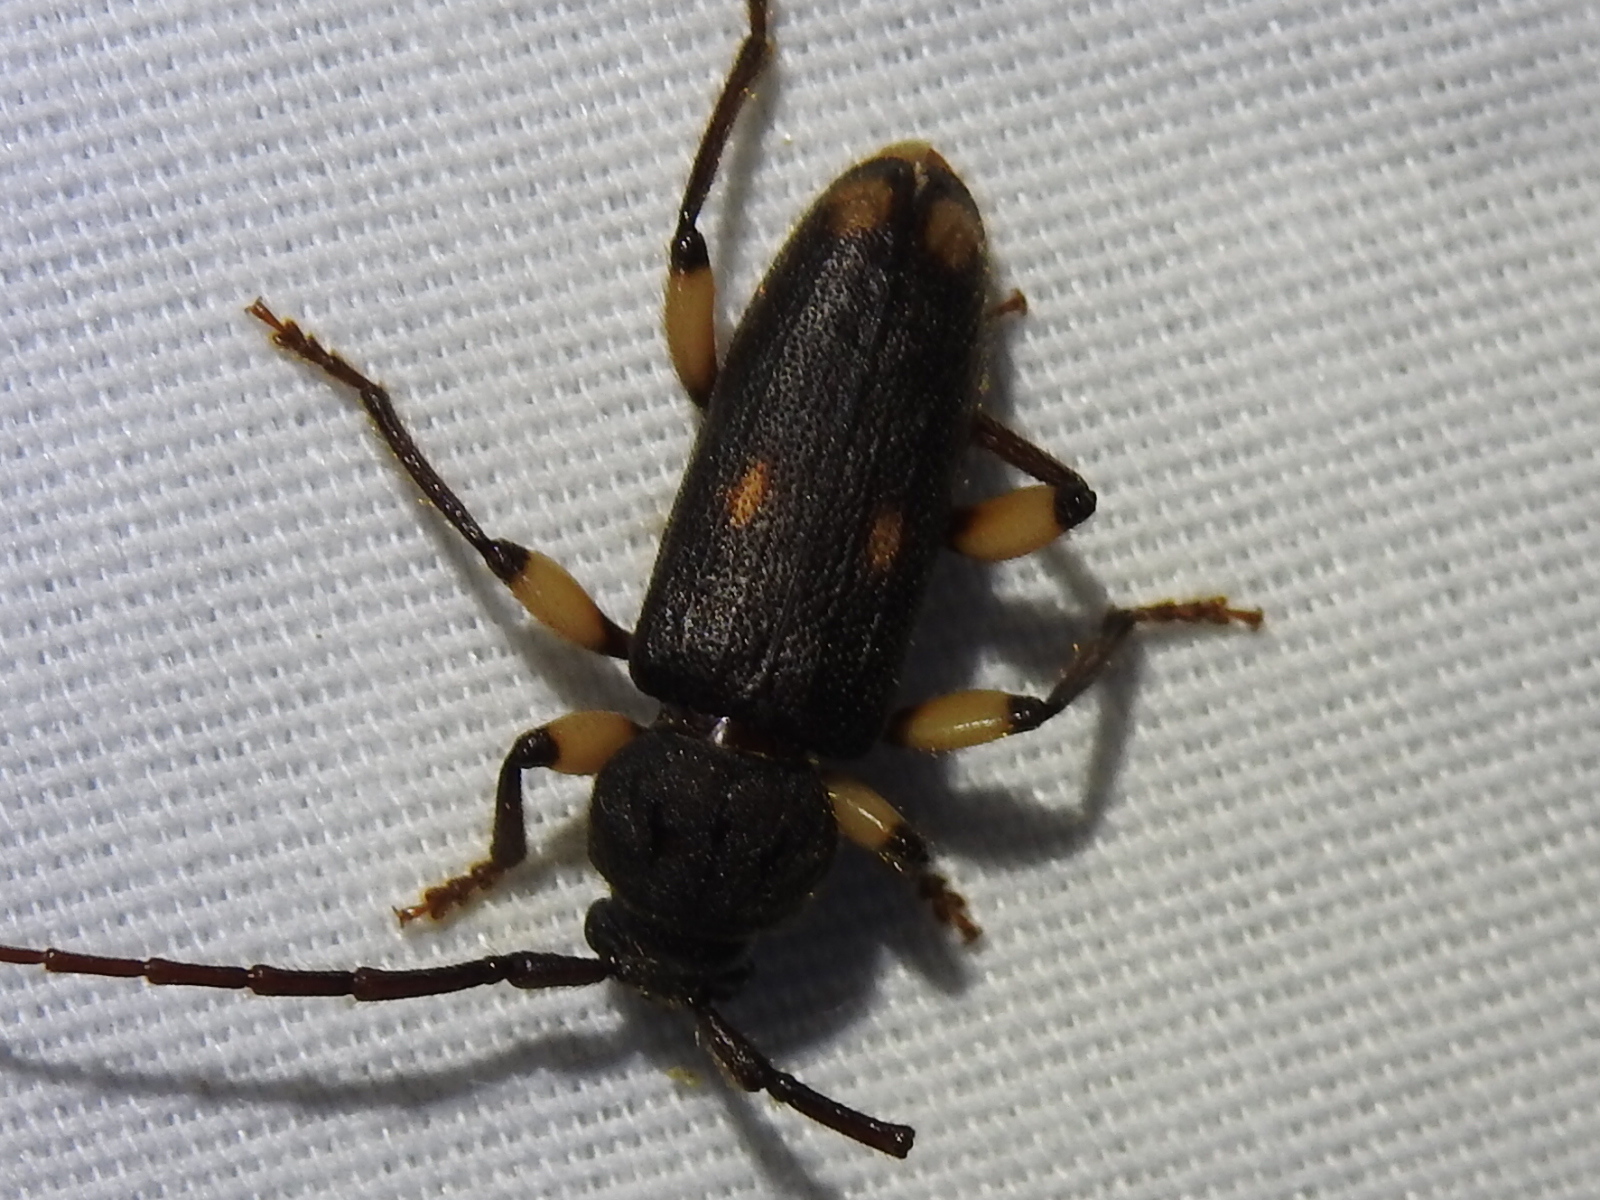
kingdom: Animalia
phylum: Arthropoda
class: Insecta
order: Coleoptera
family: Cerambycidae
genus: Tylonotus
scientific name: Tylonotus bimaculatus
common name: Ash and privet borer
